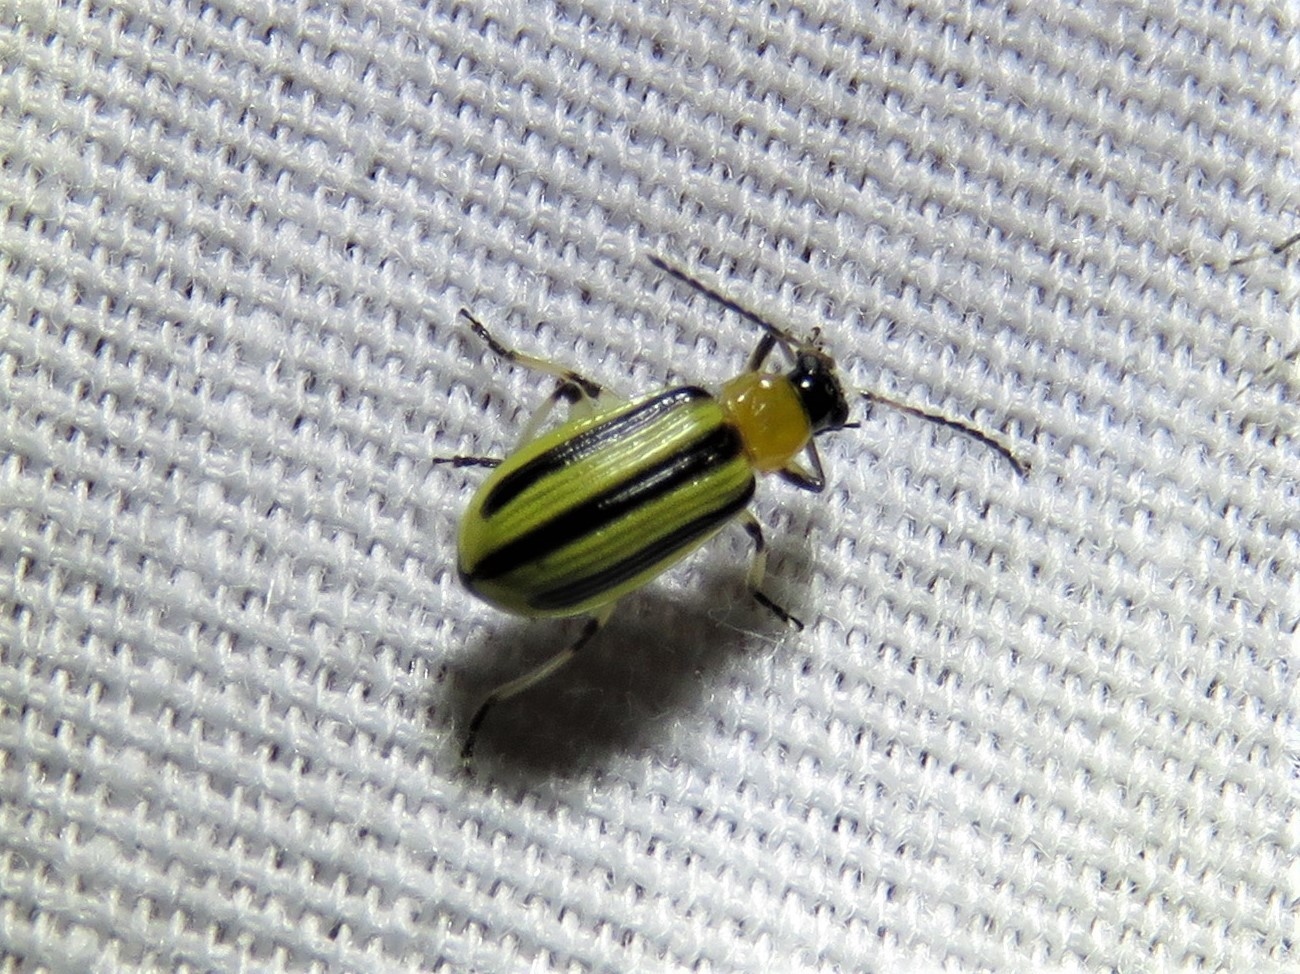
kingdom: Animalia
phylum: Arthropoda
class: Insecta
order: Coleoptera
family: Chrysomelidae
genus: Acalymma
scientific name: Acalymma vittatum
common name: Striped cucumber beetle
